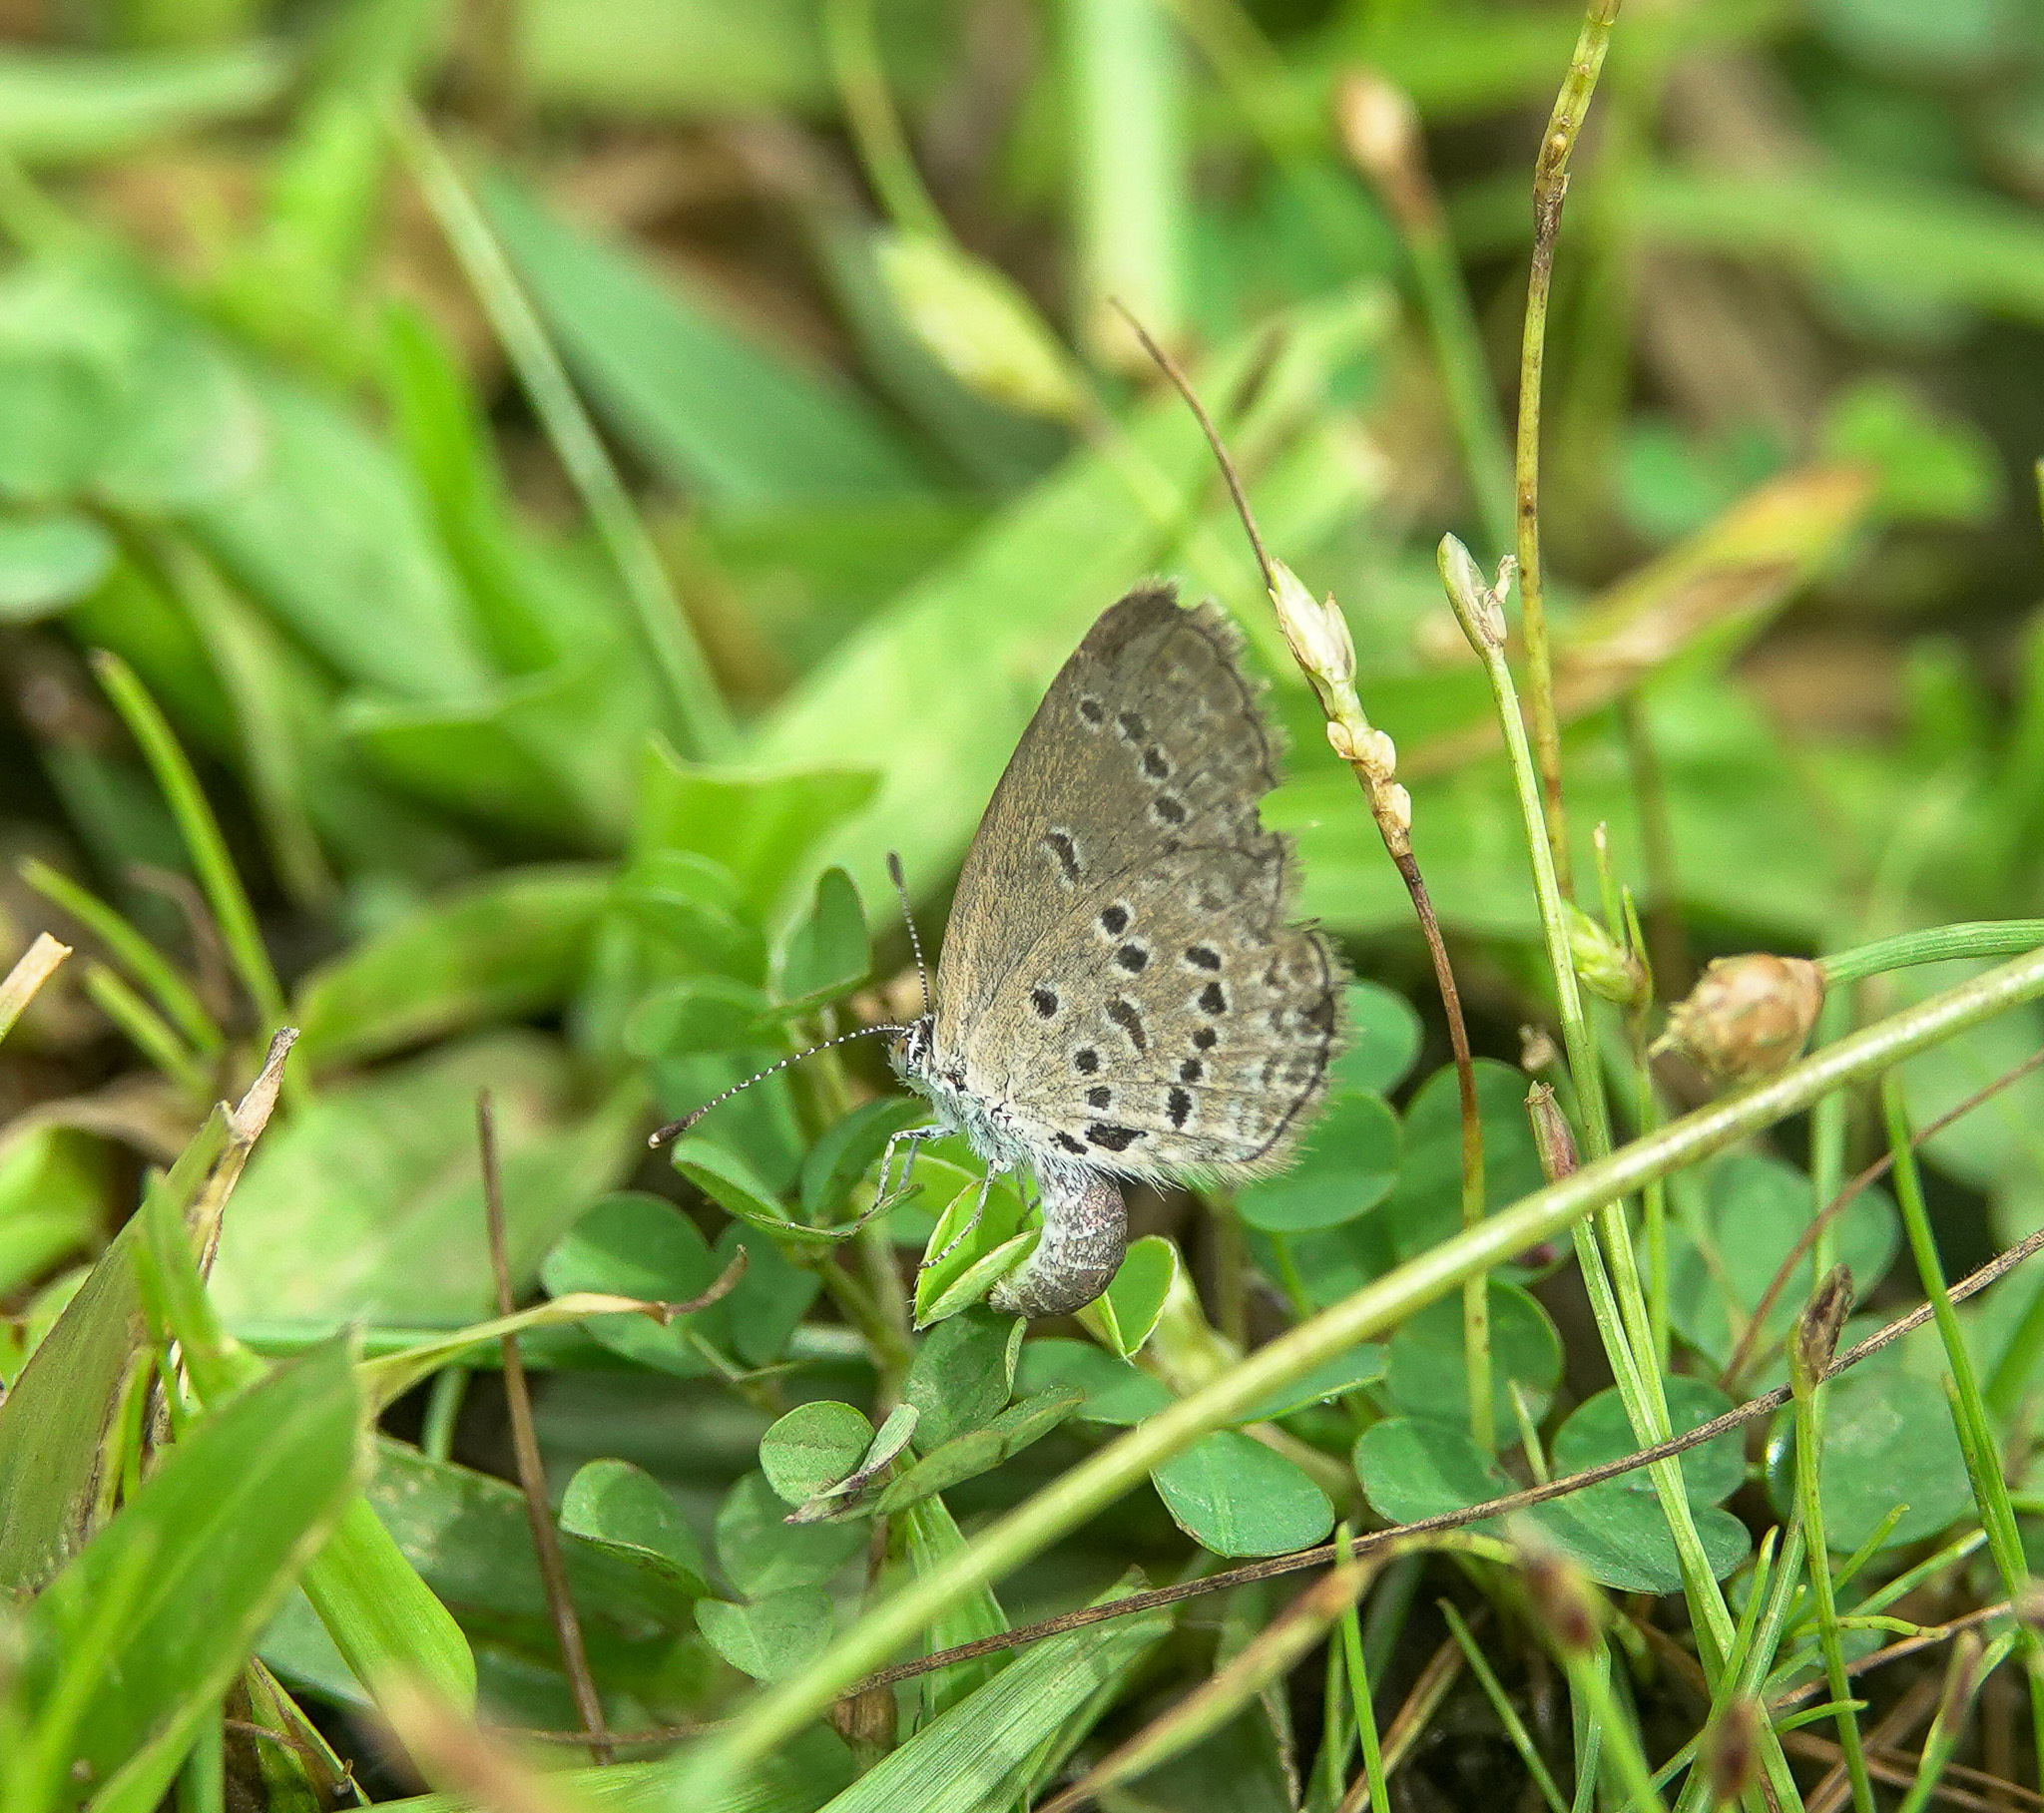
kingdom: Animalia
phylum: Arthropoda
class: Insecta
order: Lepidoptera
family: Lycaenidae
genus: Zizina
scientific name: Zizina otis
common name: Lesser grass blue
